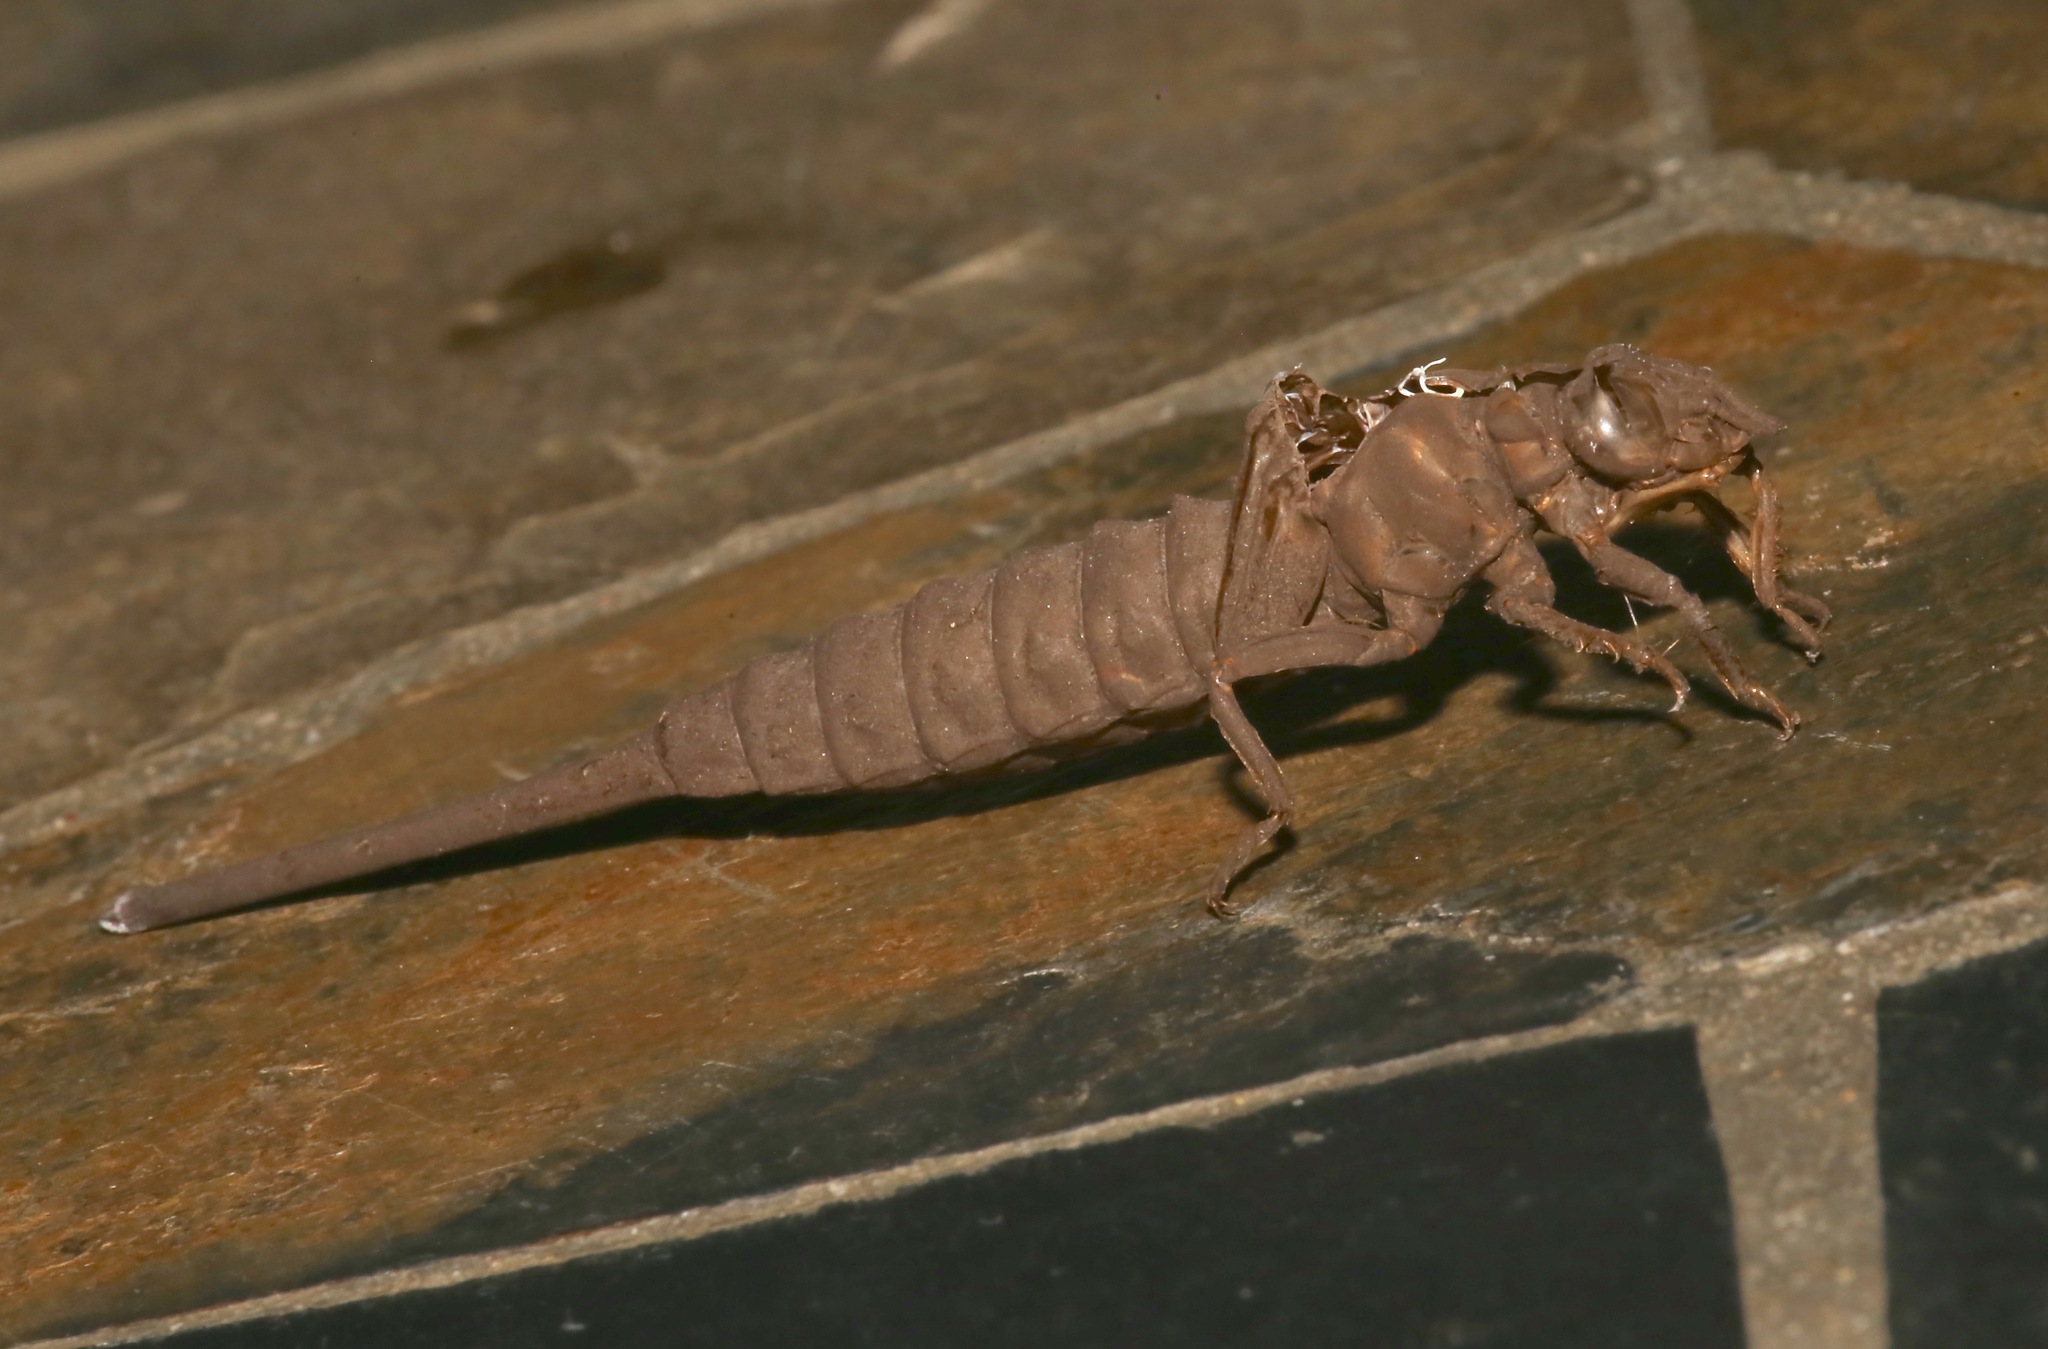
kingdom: Animalia
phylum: Arthropoda
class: Insecta
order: Odonata
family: Gomphidae
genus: Aphylla
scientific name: Aphylla williamsoni
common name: Two-striped forceptail
